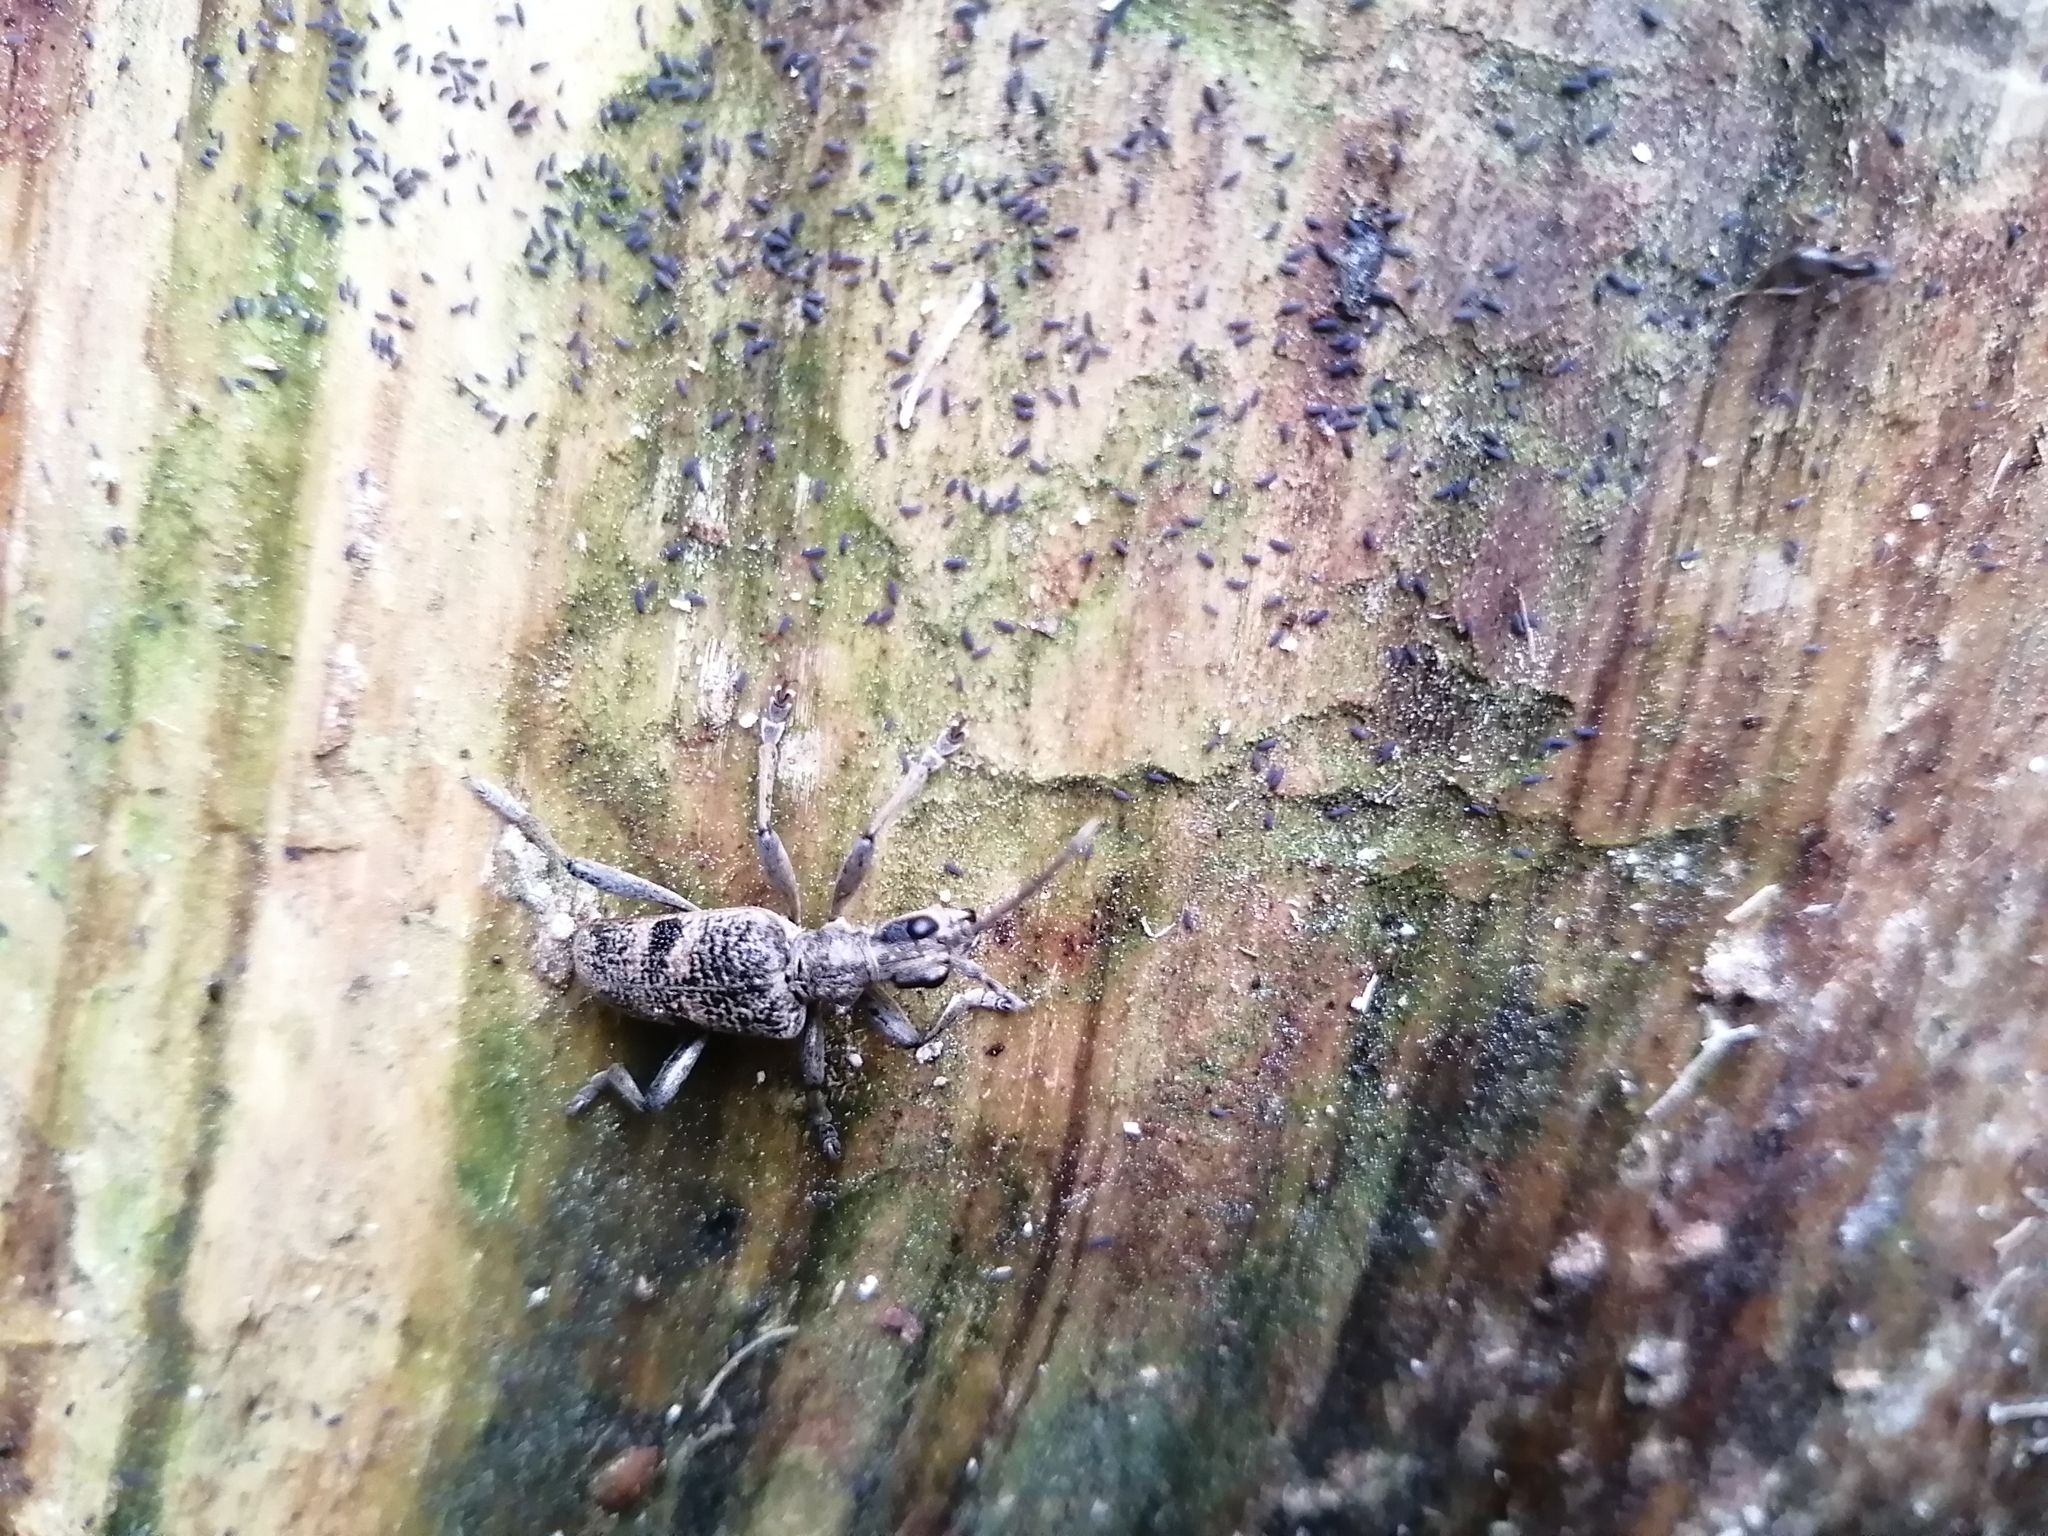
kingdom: Animalia
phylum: Arthropoda
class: Insecta
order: Coleoptera
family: Cerambycidae
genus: Rhagium
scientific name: Rhagium mordax
